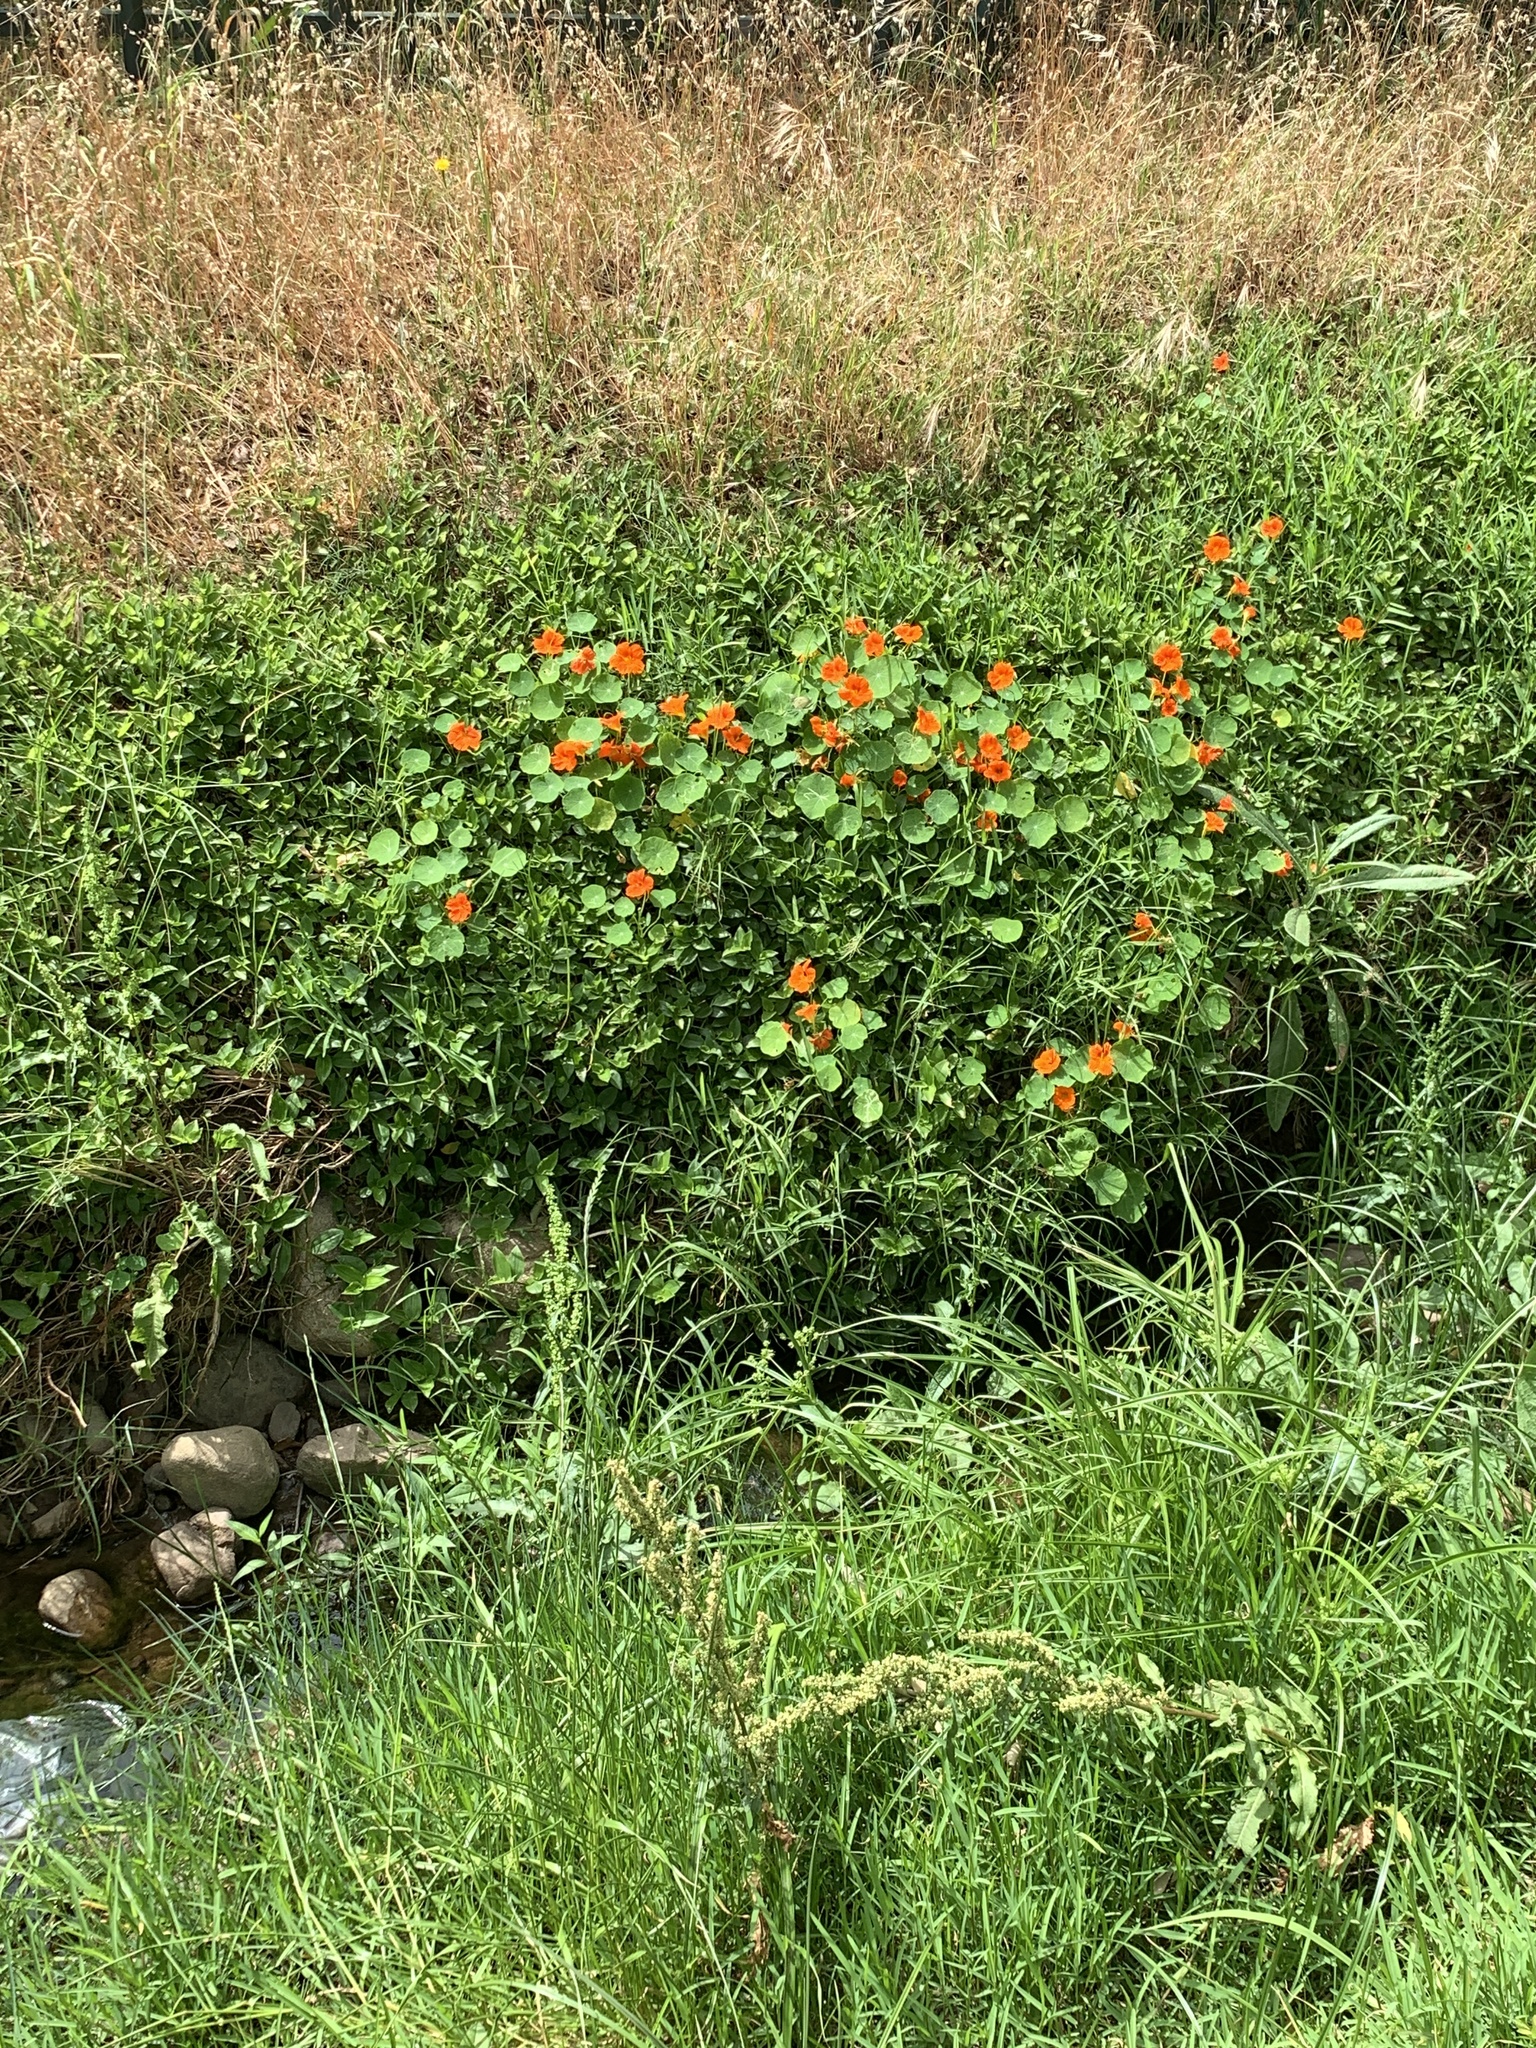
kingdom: Plantae
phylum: Tracheophyta
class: Magnoliopsida
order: Brassicales
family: Tropaeolaceae
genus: Tropaeolum
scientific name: Tropaeolum majus
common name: Nasturtium
